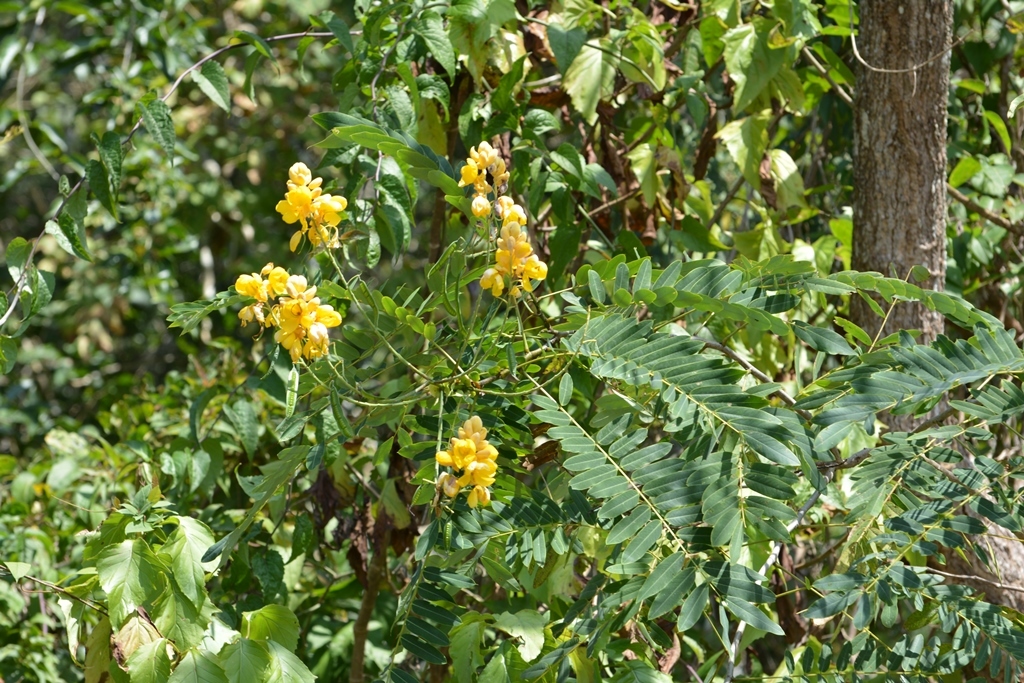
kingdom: Plantae
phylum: Tracheophyta
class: Magnoliopsida
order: Fabales
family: Fabaceae
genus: Senna
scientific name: Senna reticulata
